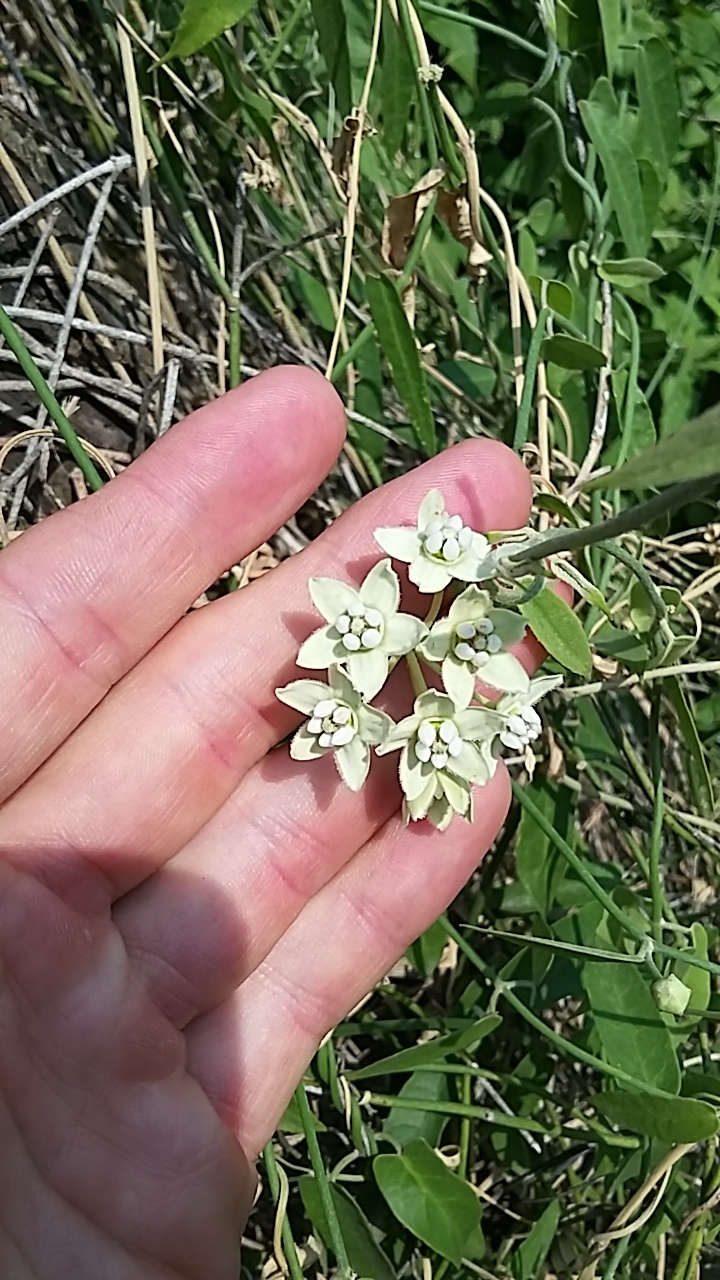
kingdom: Plantae
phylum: Tracheophyta
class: Magnoliopsida
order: Gentianales
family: Apocynaceae
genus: Funastrum
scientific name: Funastrum clausum
